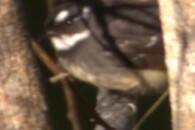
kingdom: Animalia
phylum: Chordata
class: Aves
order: Passeriformes
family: Rhipiduridae
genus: Rhipidura
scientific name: Rhipidura albiscapa
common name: Grey fantail
